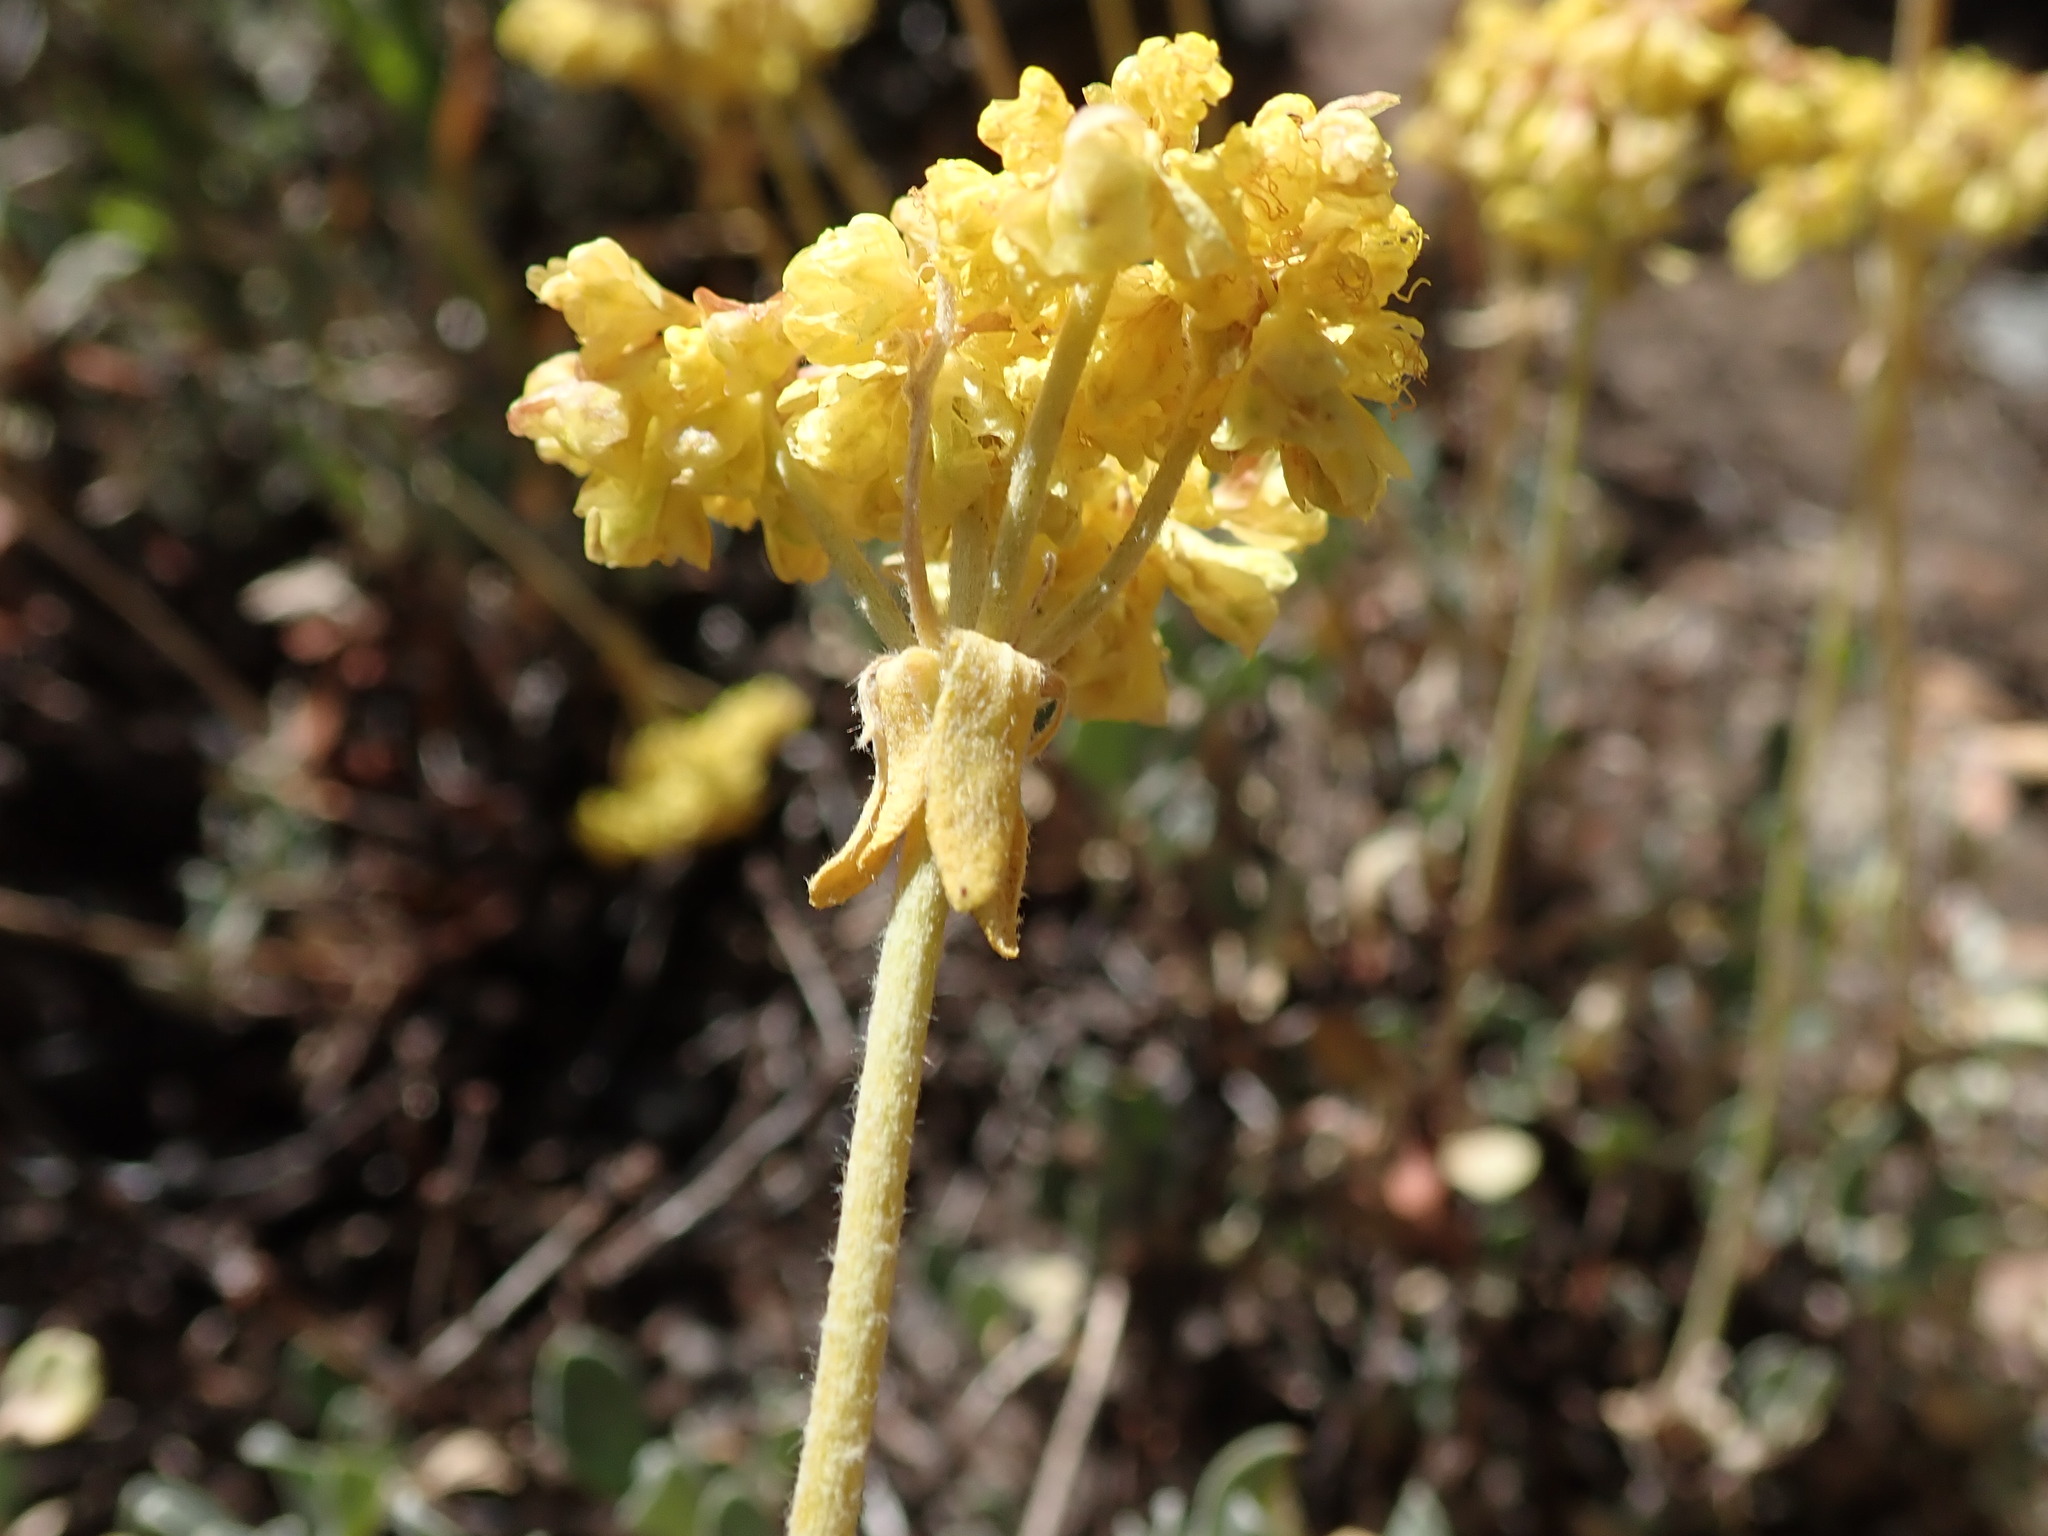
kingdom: Plantae
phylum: Tracheophyta
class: Magnoliopsida
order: Caryophyllales
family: Polygonaceae
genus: Eriogonum
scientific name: Eriogonum umbellatum
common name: Sulfur-buckwheat
